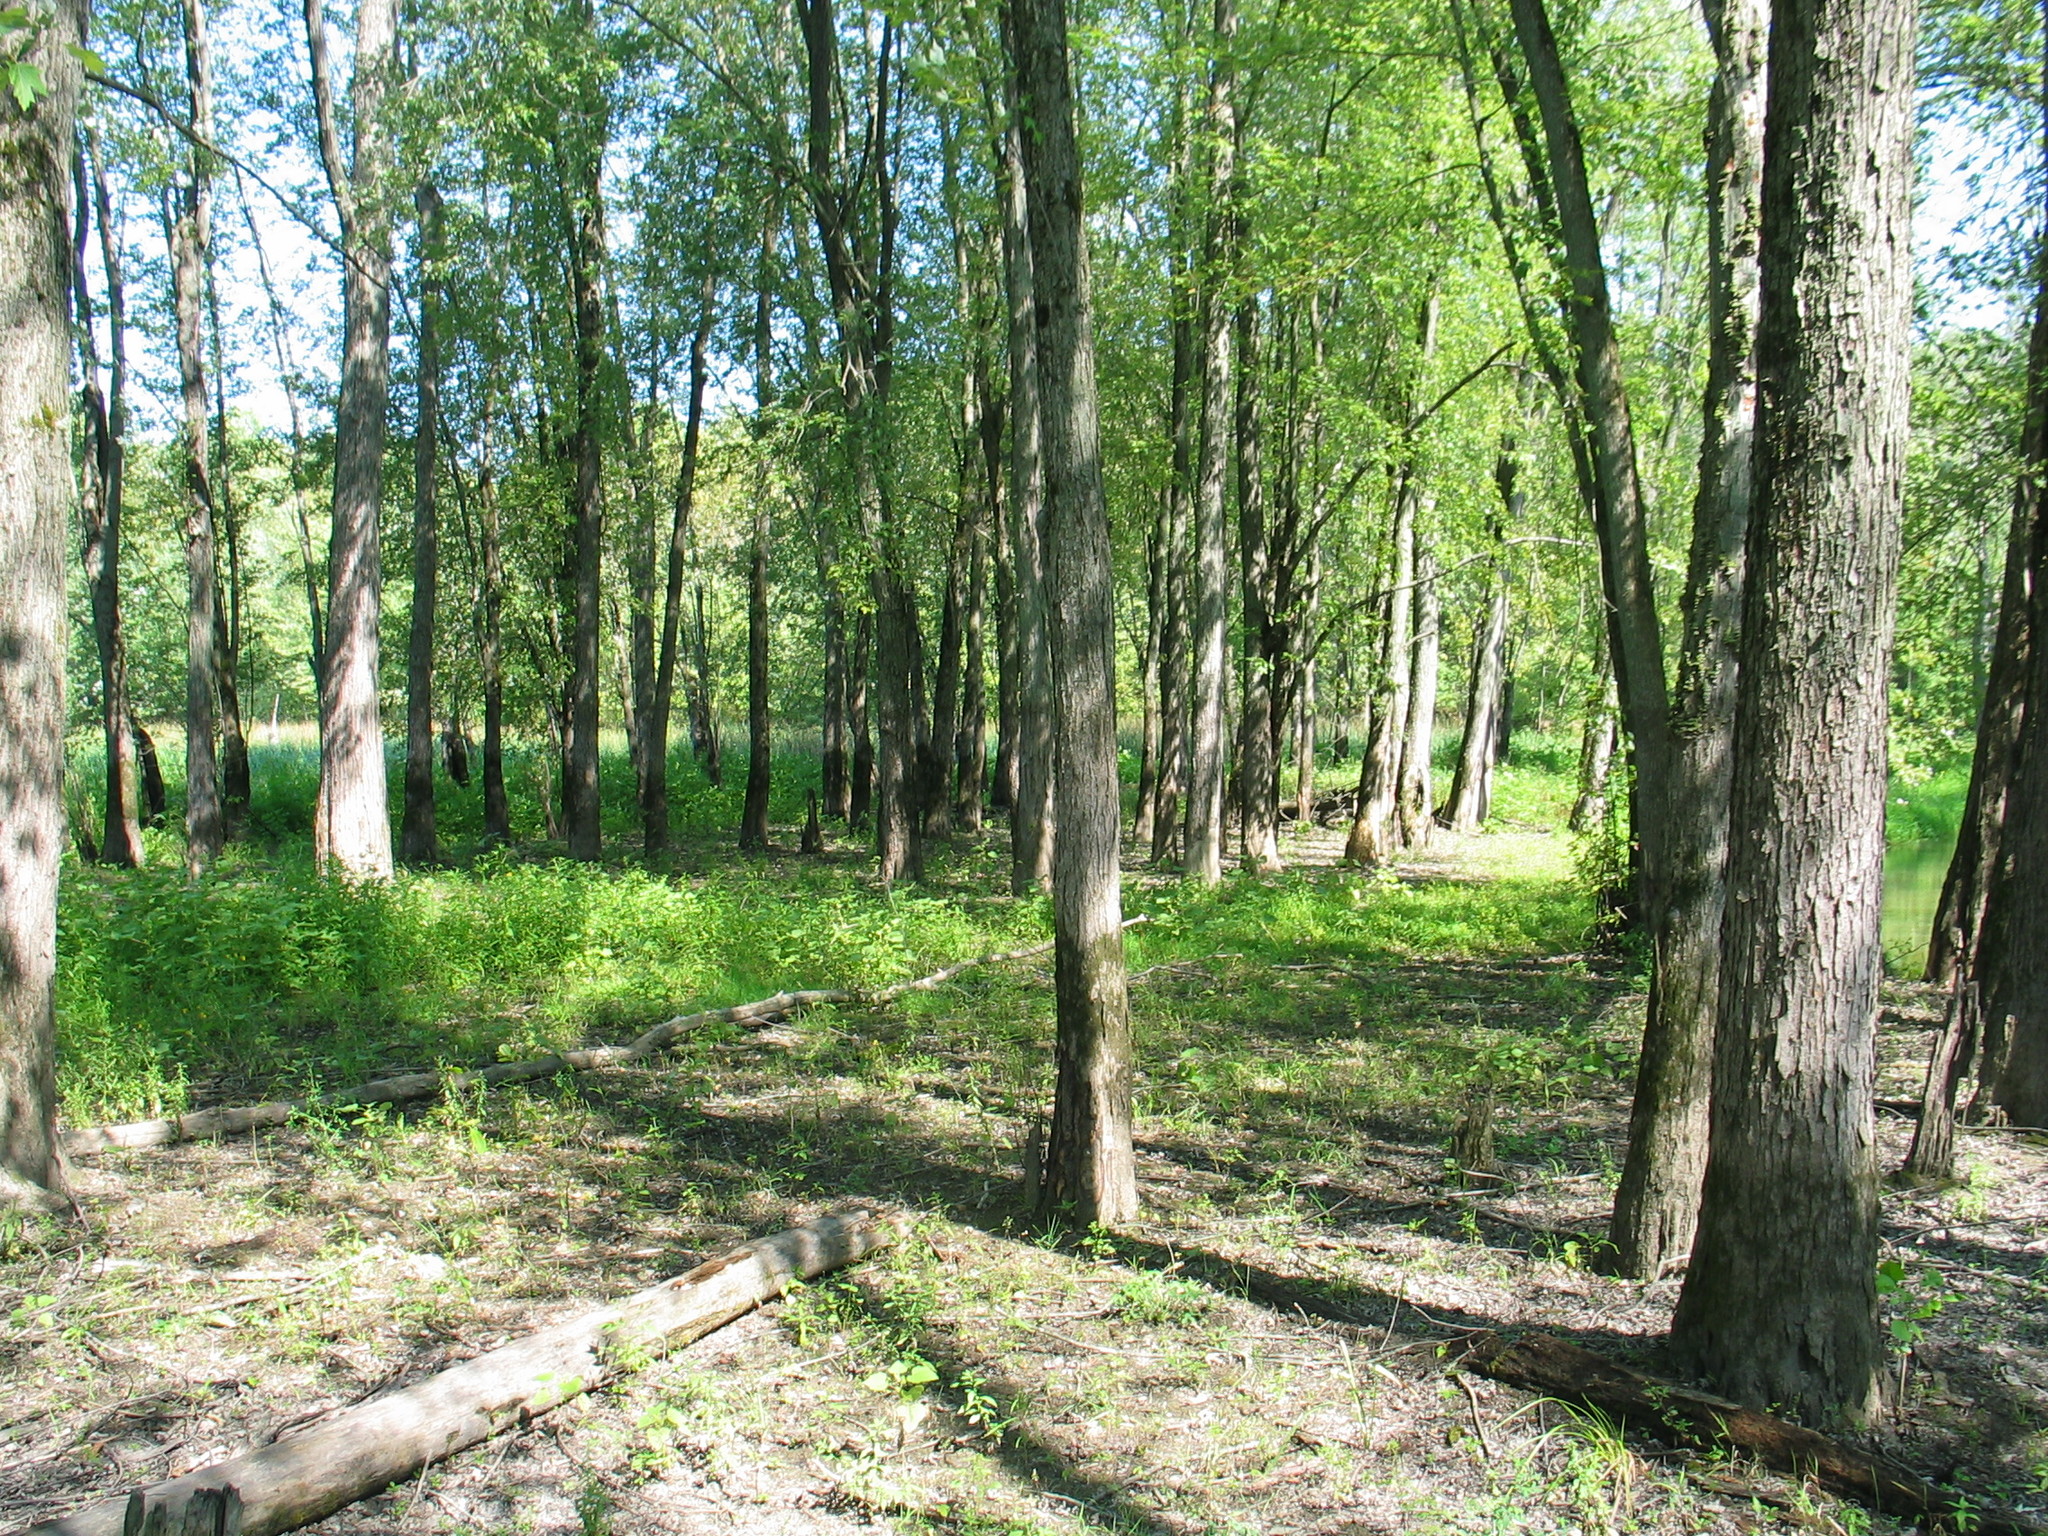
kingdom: Plantae
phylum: Tracheophyta
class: Magnoliopsida
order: Sapindales
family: Sapindaceae
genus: Acer
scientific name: Acer saccharinum
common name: Silver maple
